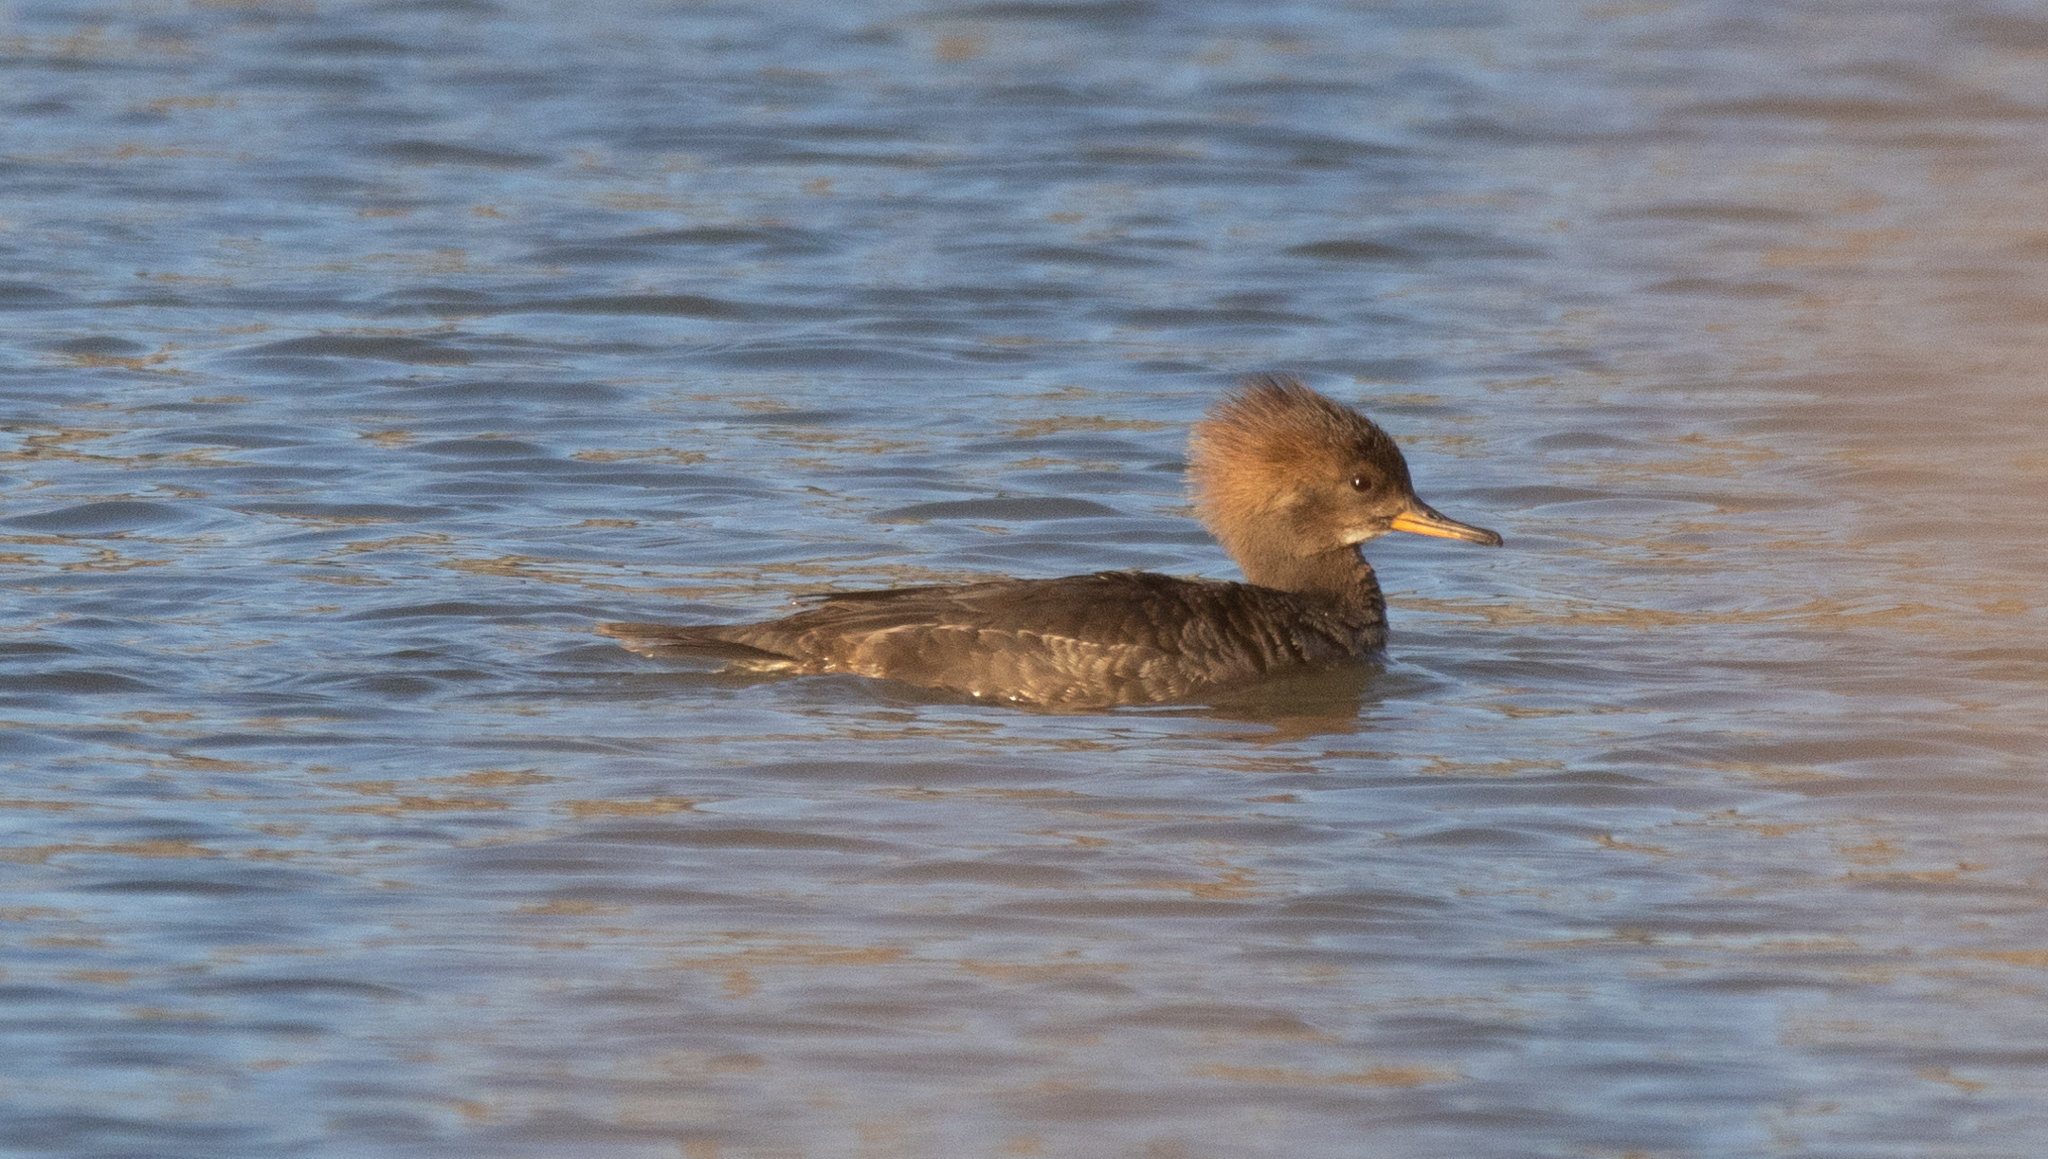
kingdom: Animalia
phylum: Chordata
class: Aves
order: Anseriformes
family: Anatidae
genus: Lophodytes
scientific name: Lophodytes cucullatus
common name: Hooded merganser
